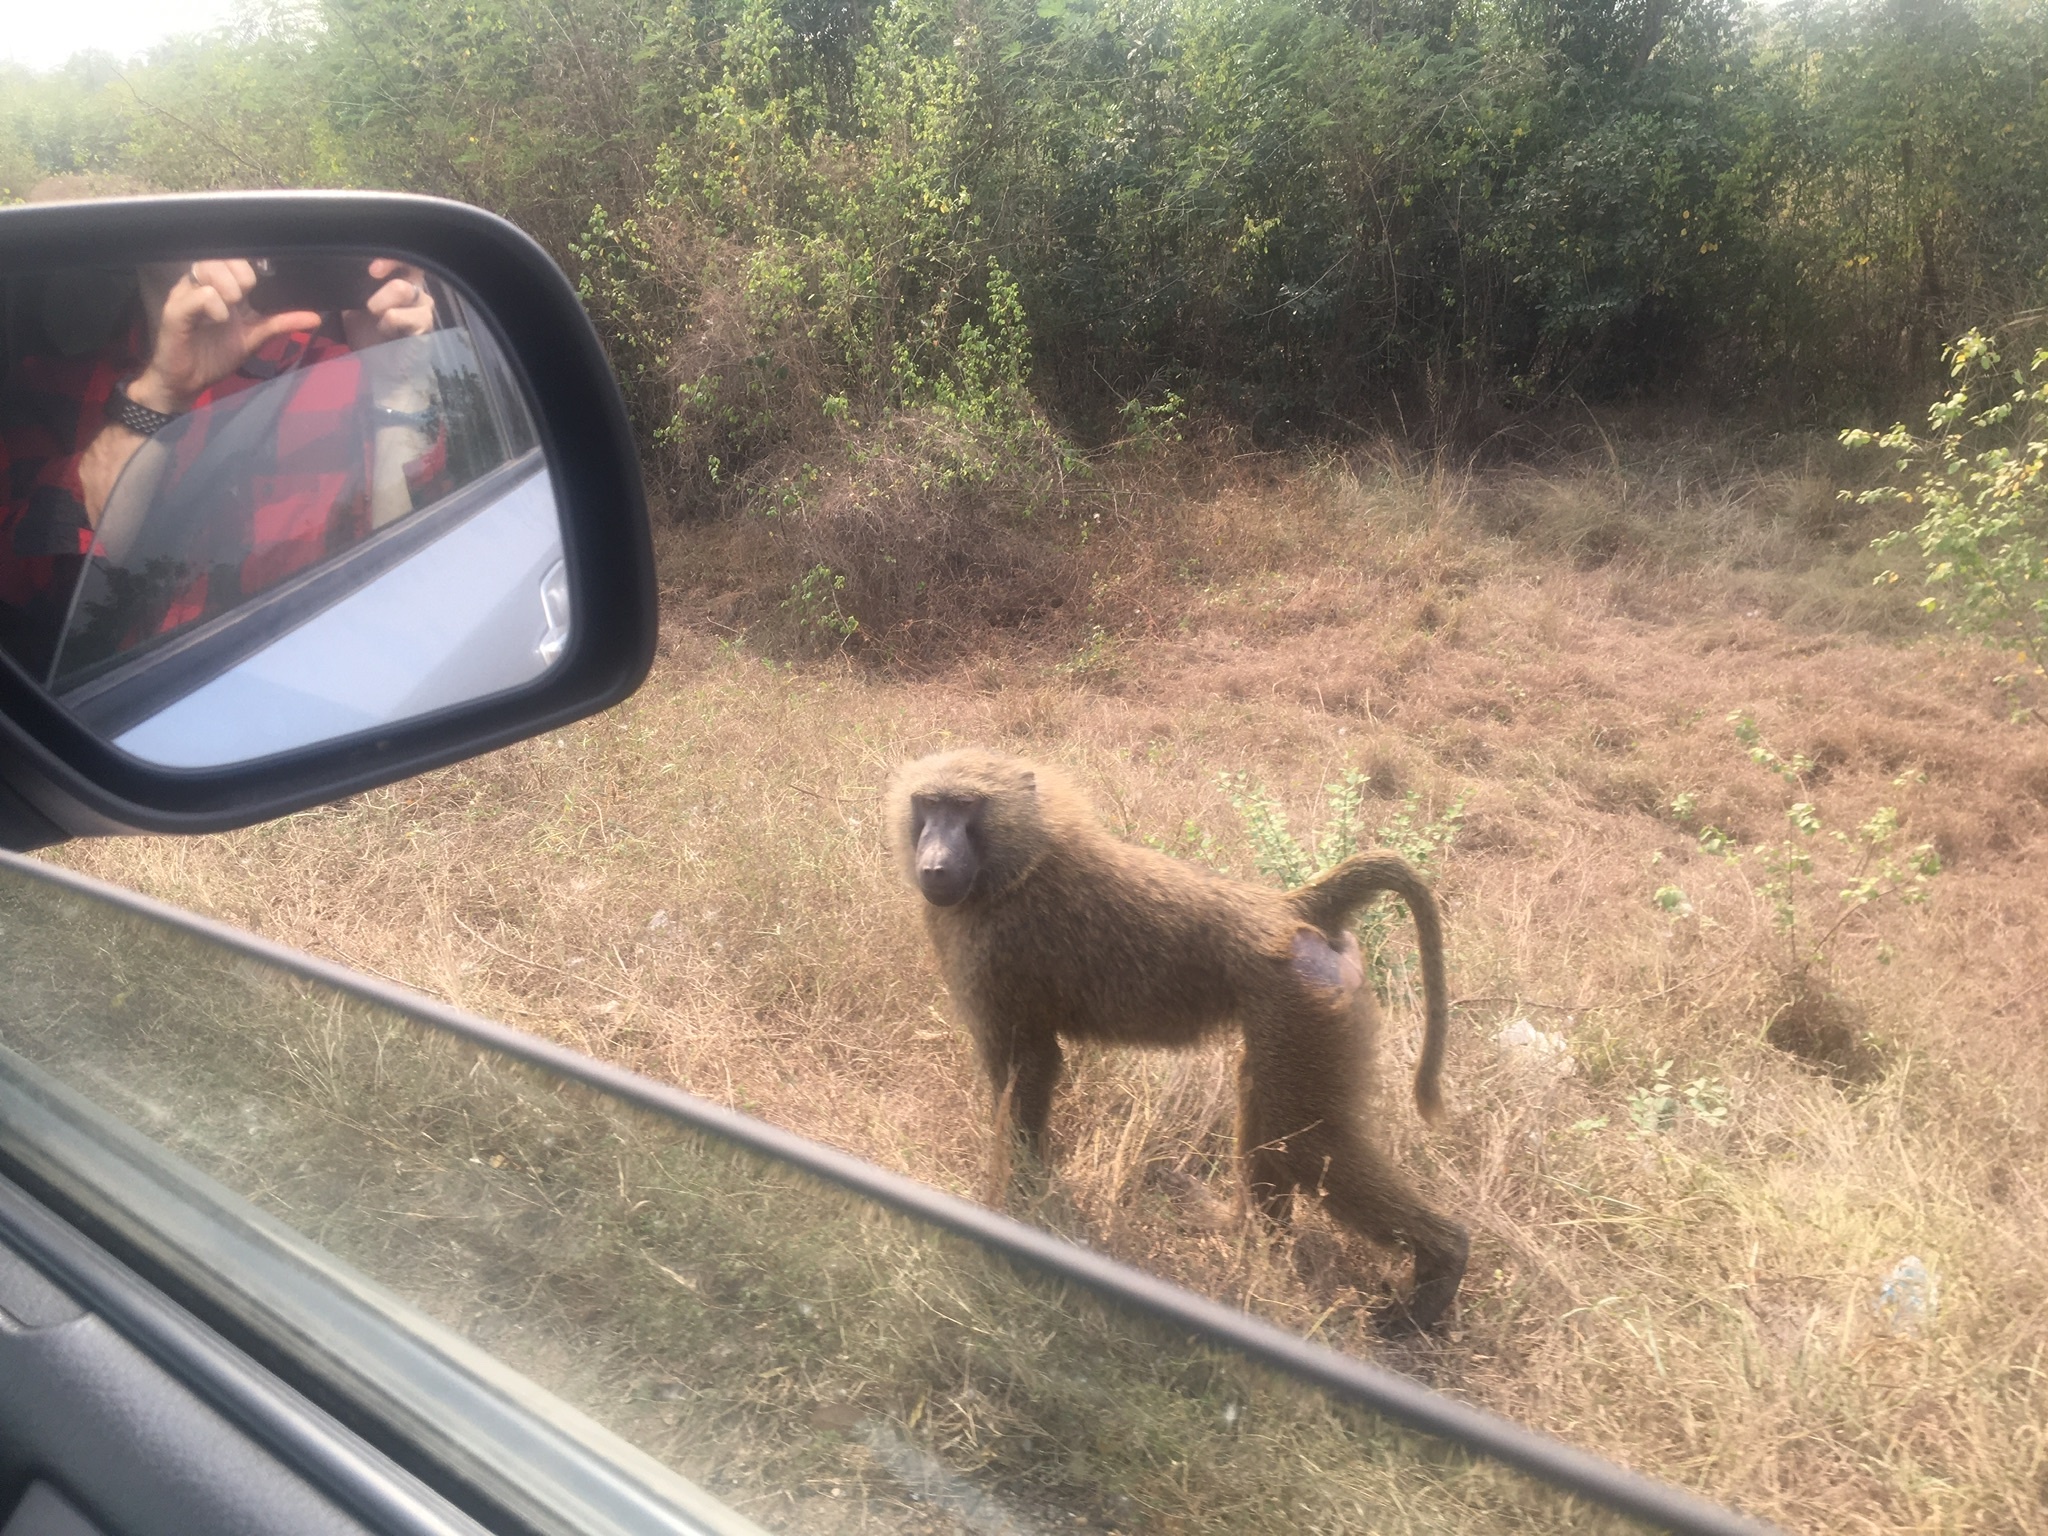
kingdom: Animalia
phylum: Chordata
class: Mammalia
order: Primates
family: Cercopithecidae
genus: Papio
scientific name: Papio anubis
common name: Olive baboon
